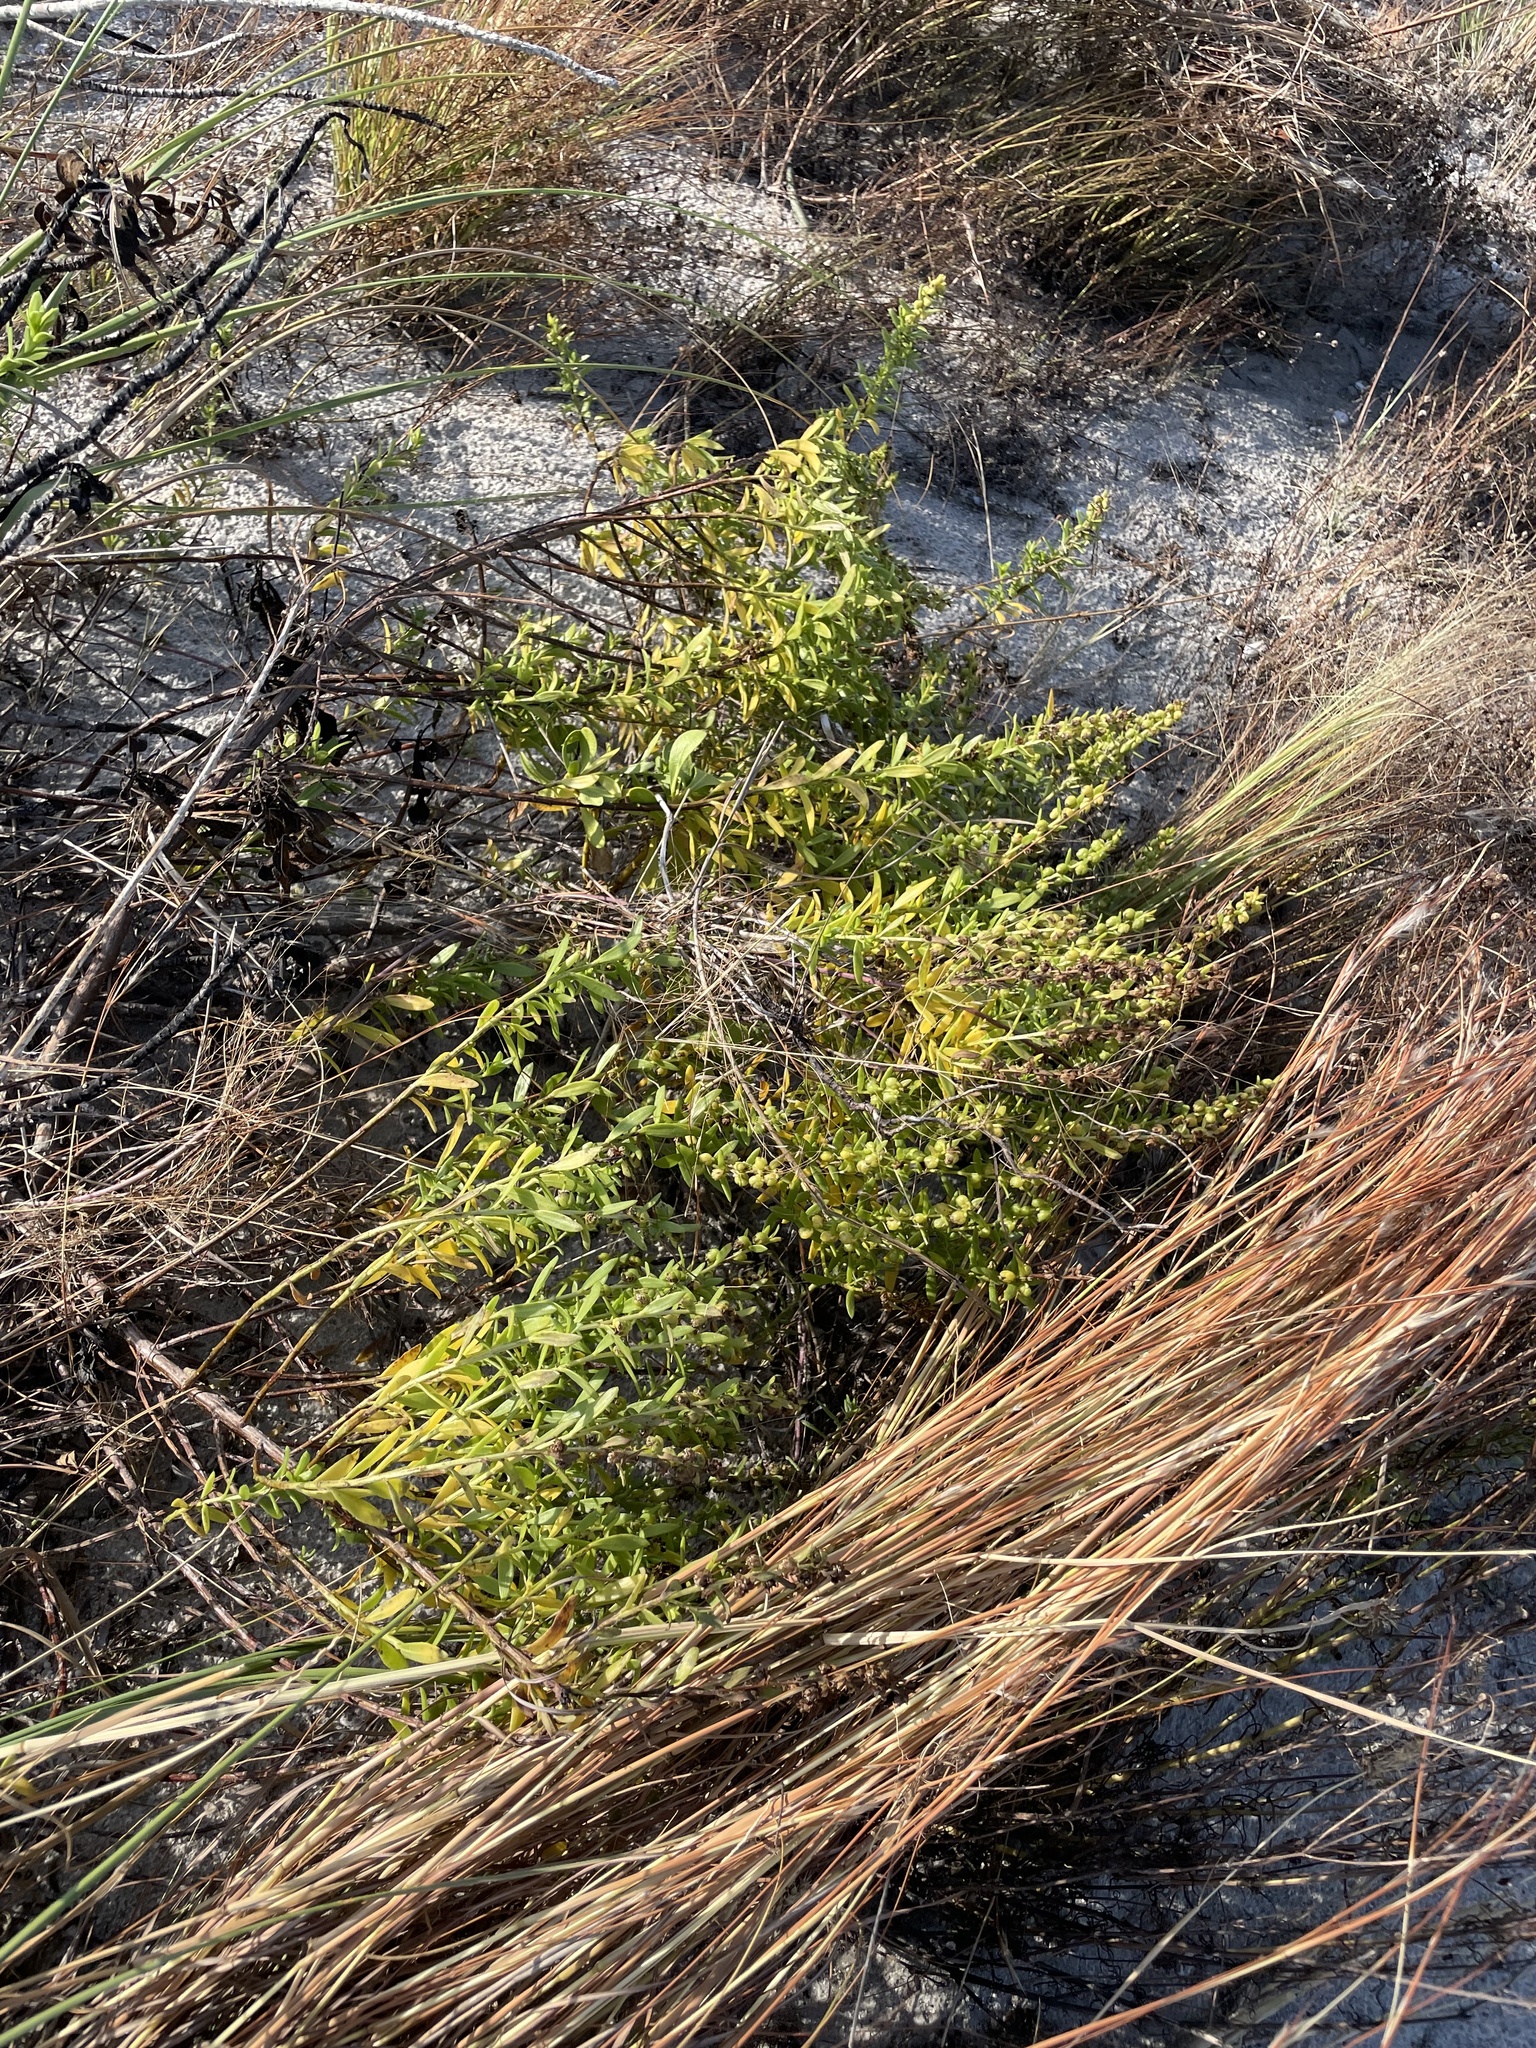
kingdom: Plantae
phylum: Tracheophyta
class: Magnoliopsida
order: Asterales
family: Asteraceae
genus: Iva
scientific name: Iva imbricata
